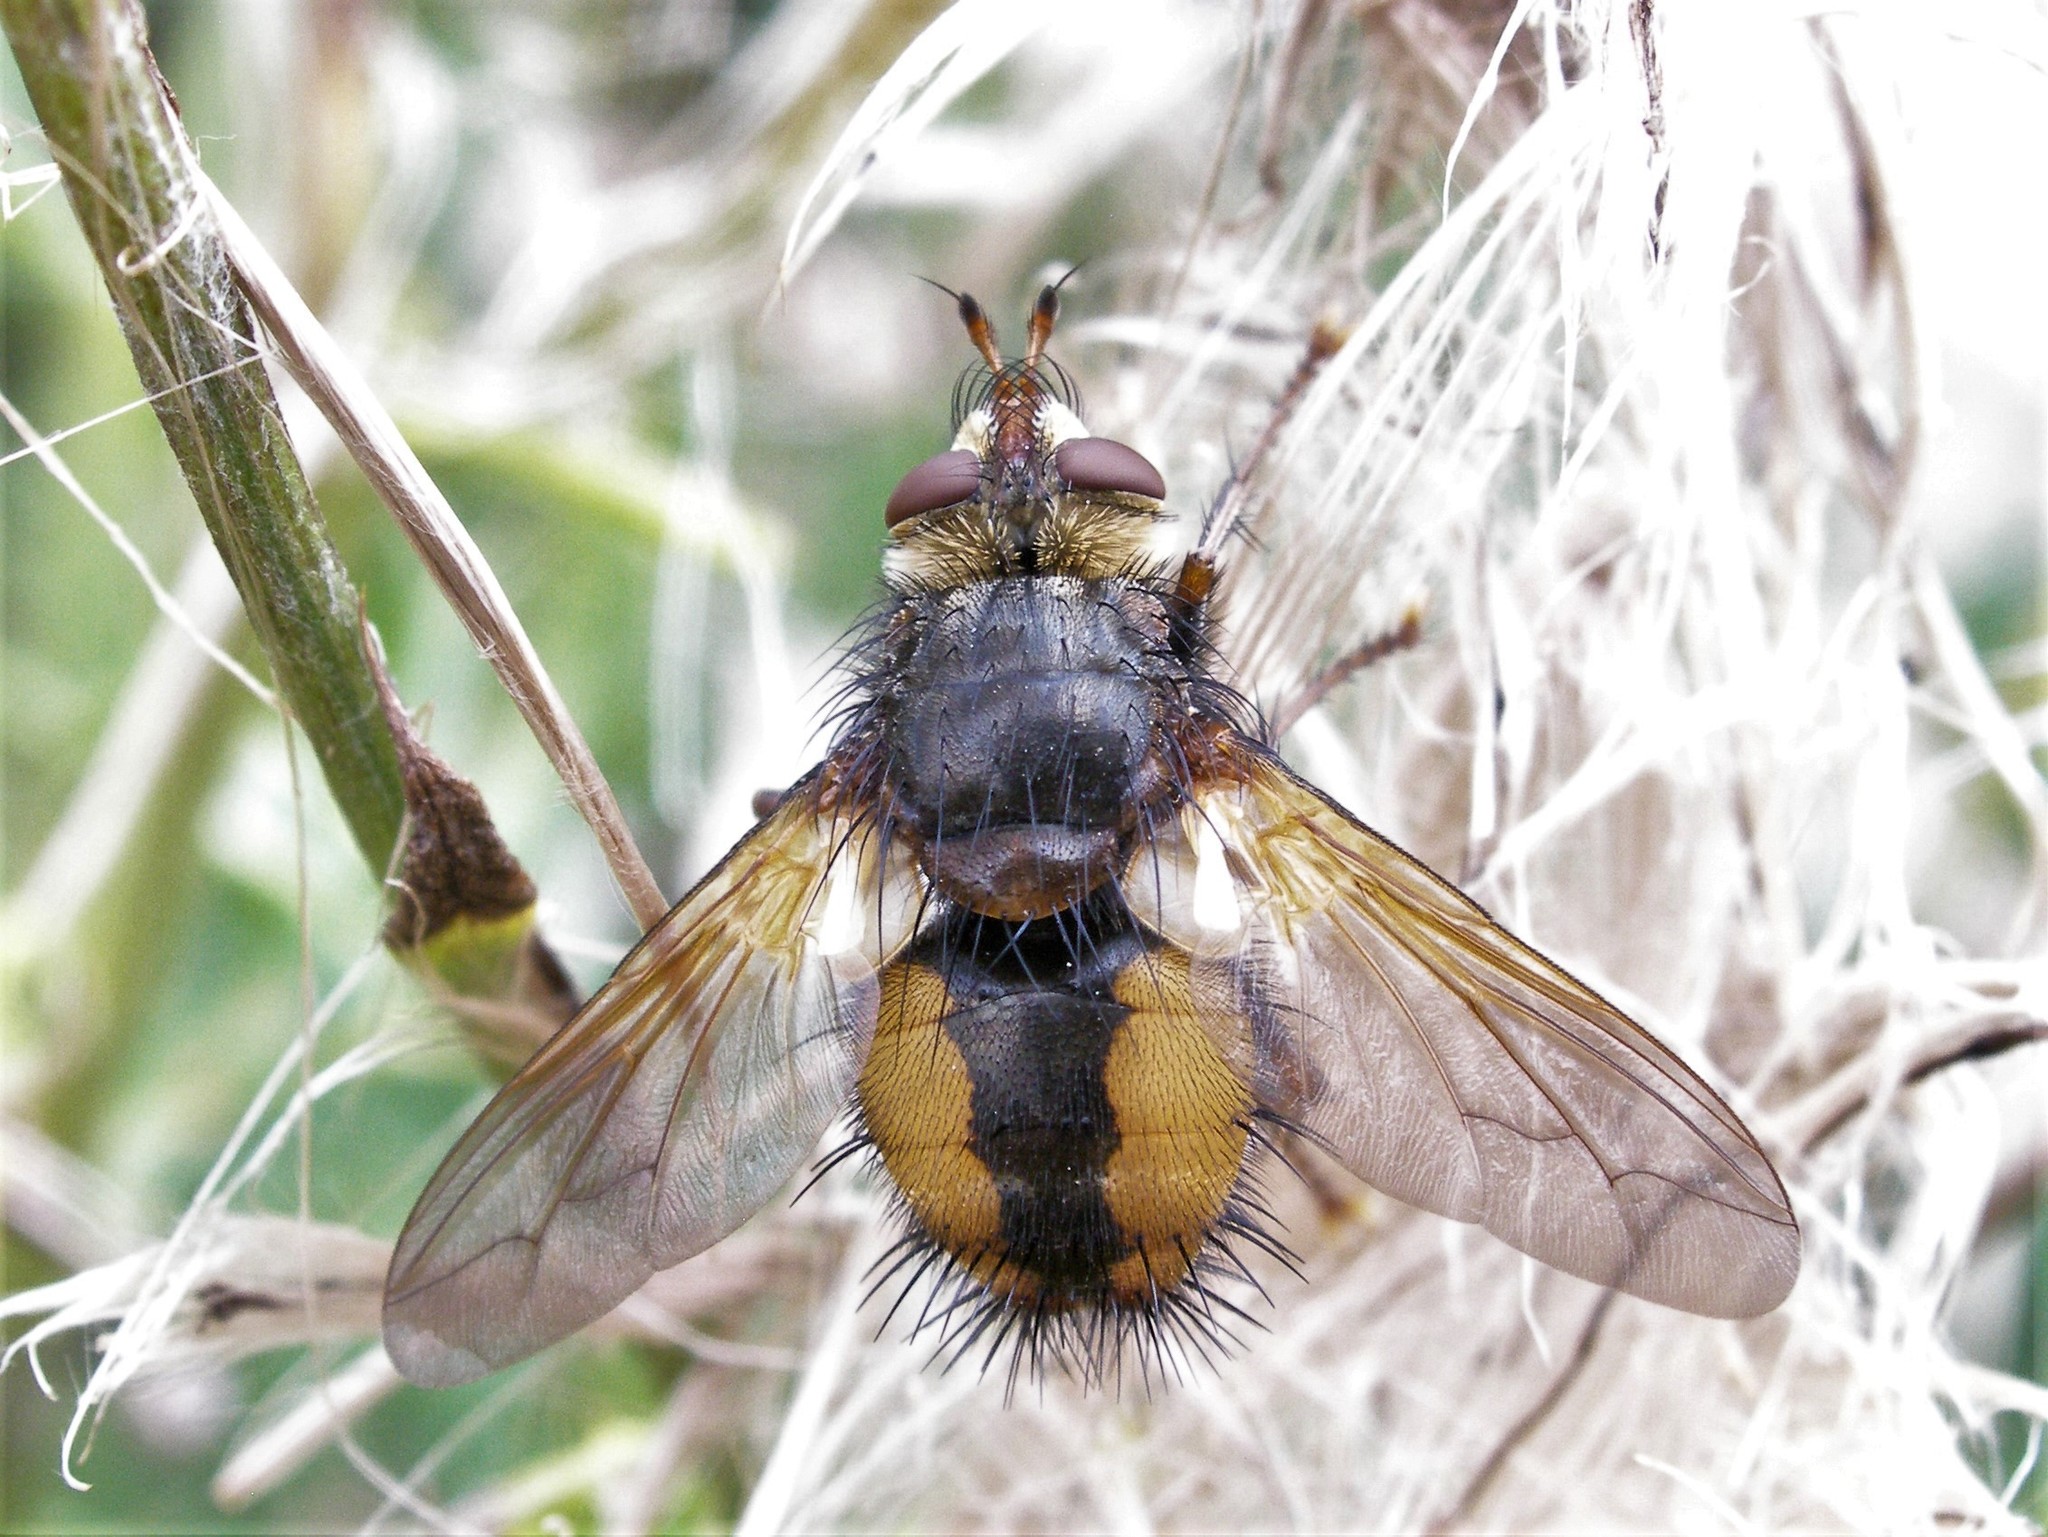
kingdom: Animalia
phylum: Arthropoda
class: Insecta
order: Diptera
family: Tachinidae
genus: Tachina
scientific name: Tachina fera
